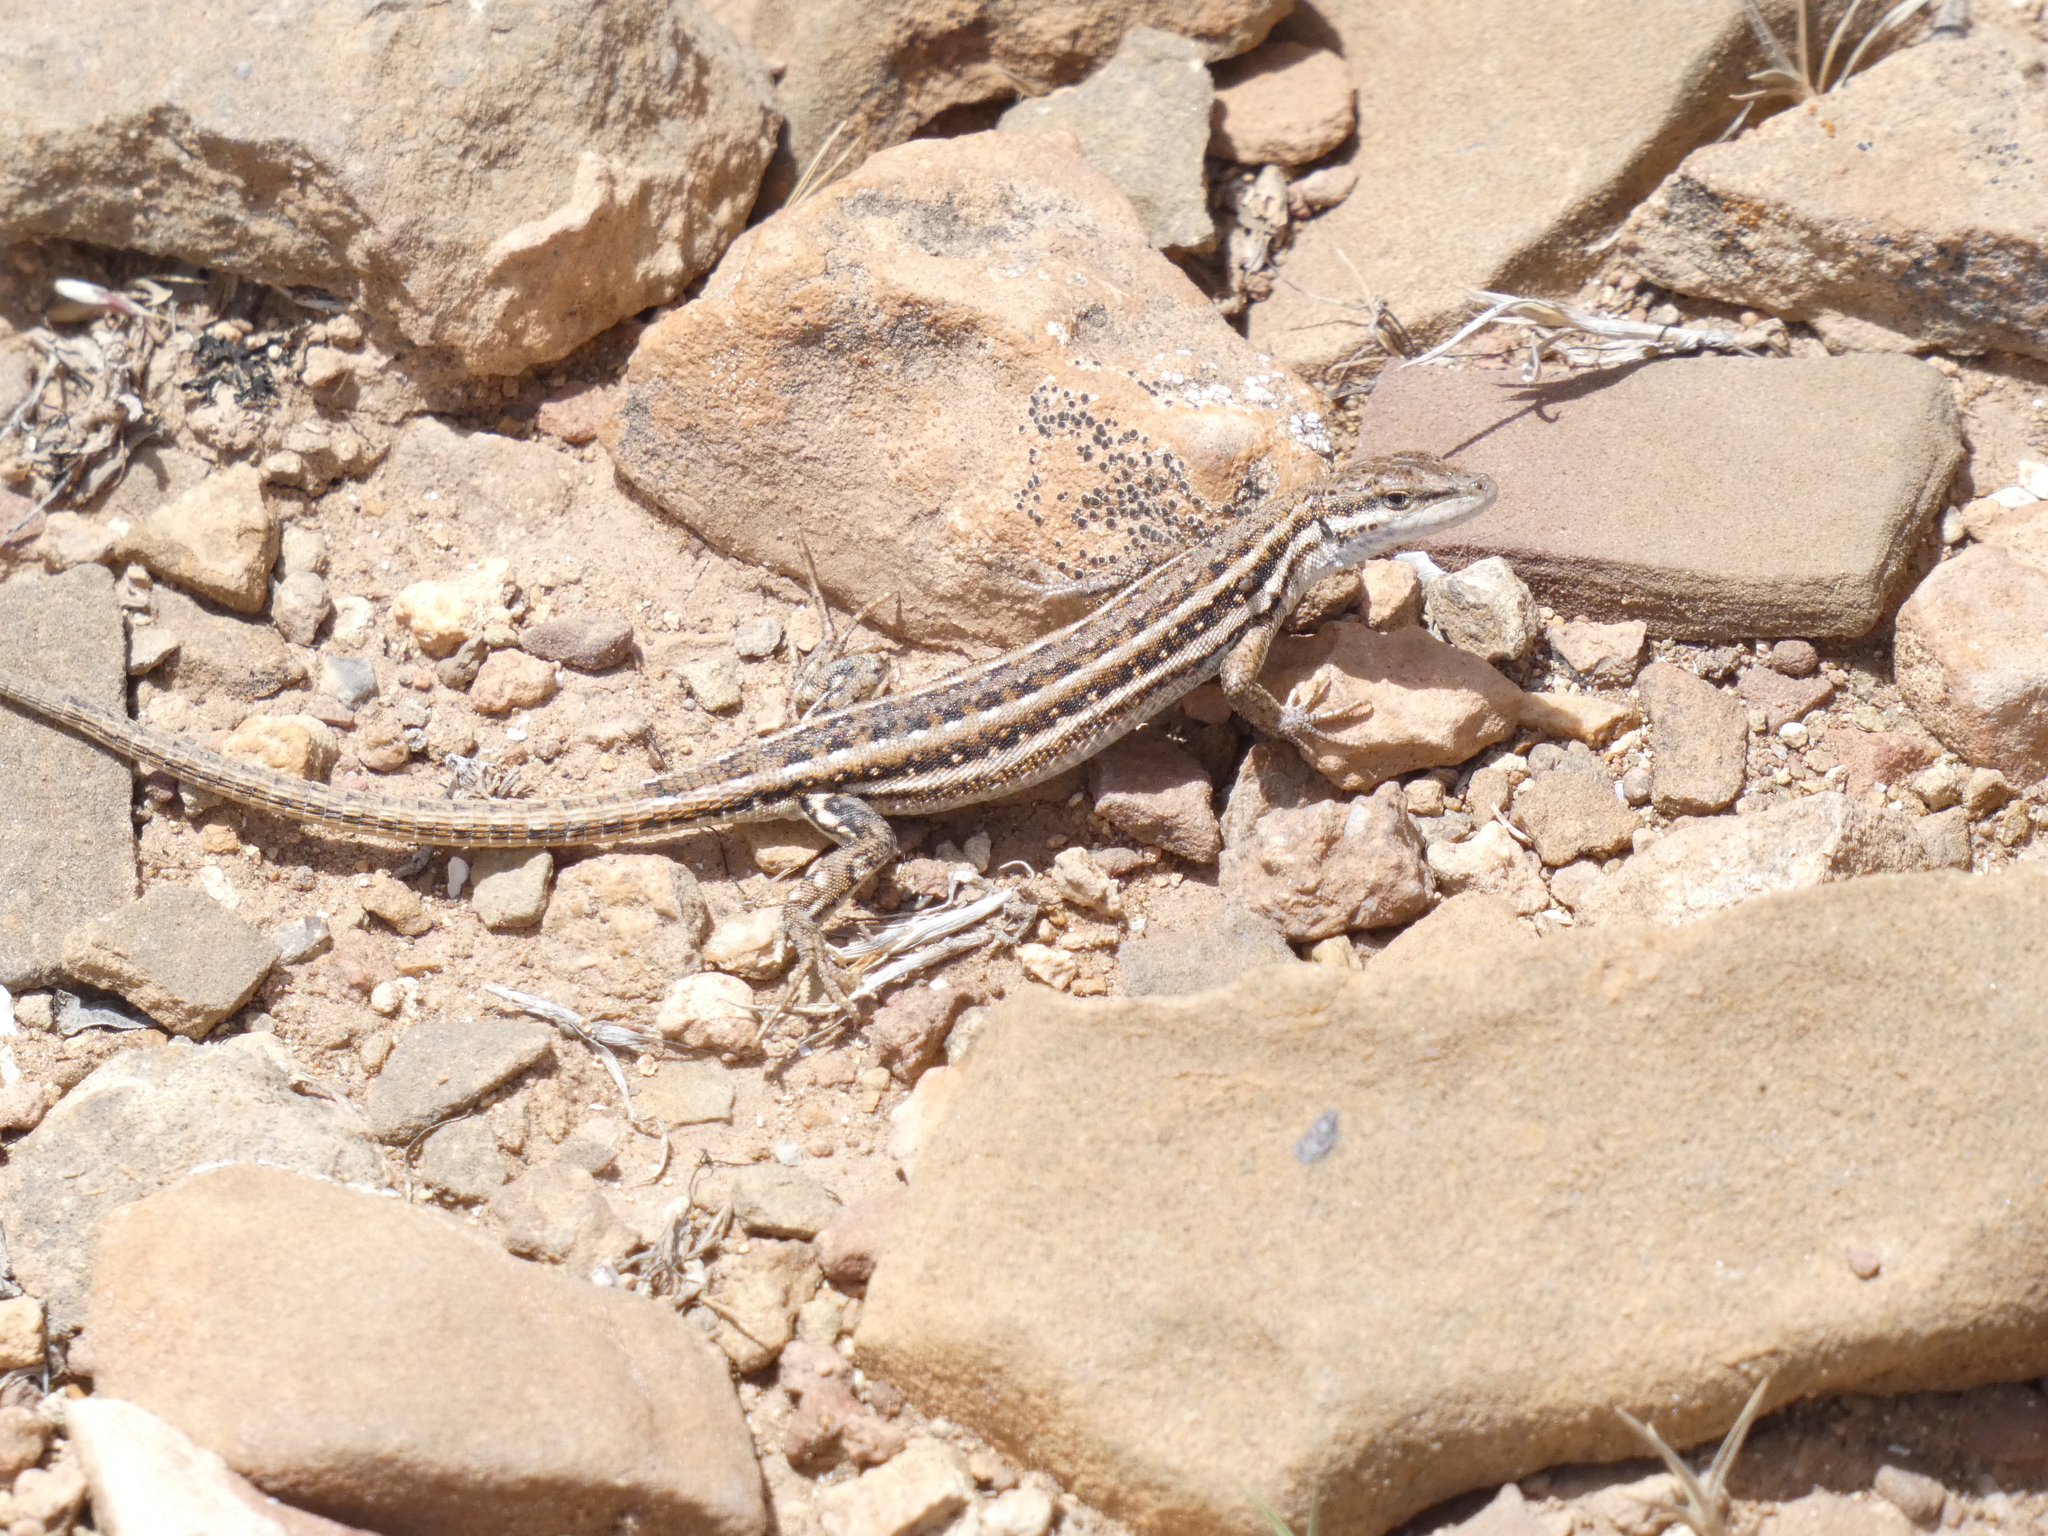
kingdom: Animalia
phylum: Chordata
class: Squamata
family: Lacertidae
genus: Mesalina
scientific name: Mesalina olivieri
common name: Oliver's desert racer
